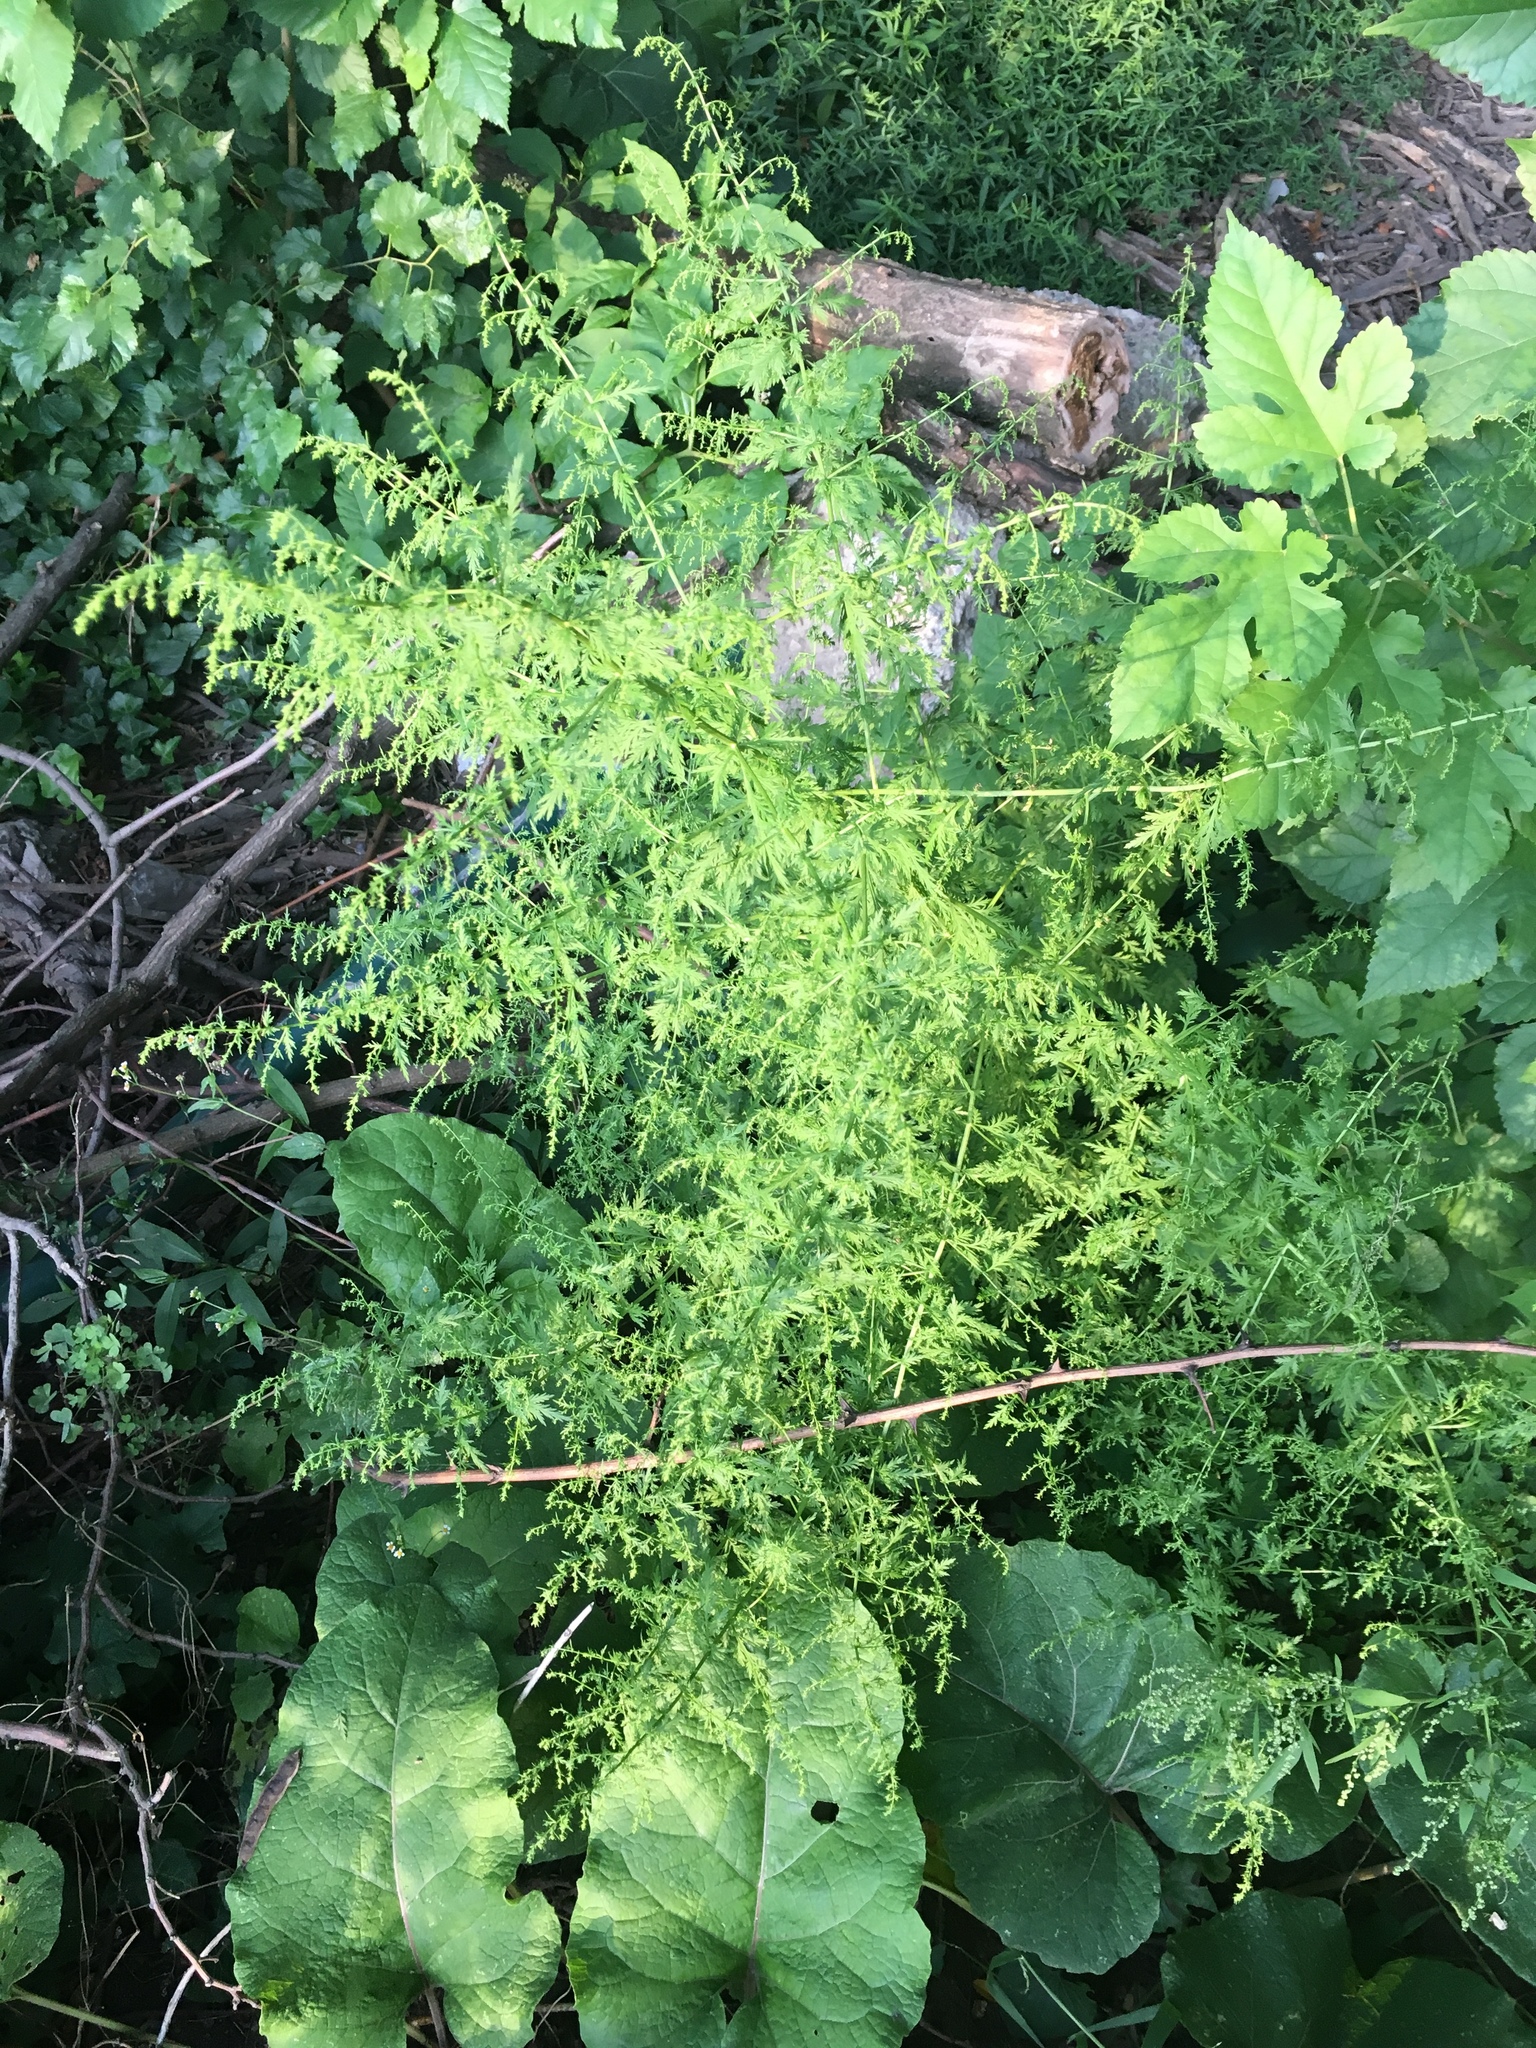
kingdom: Plantae
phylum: Tracheophyta
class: Magnoliopsida
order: Asterales
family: Asteraceae
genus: Artemisia
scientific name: Artemisia annua
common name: Sweet sagewort
